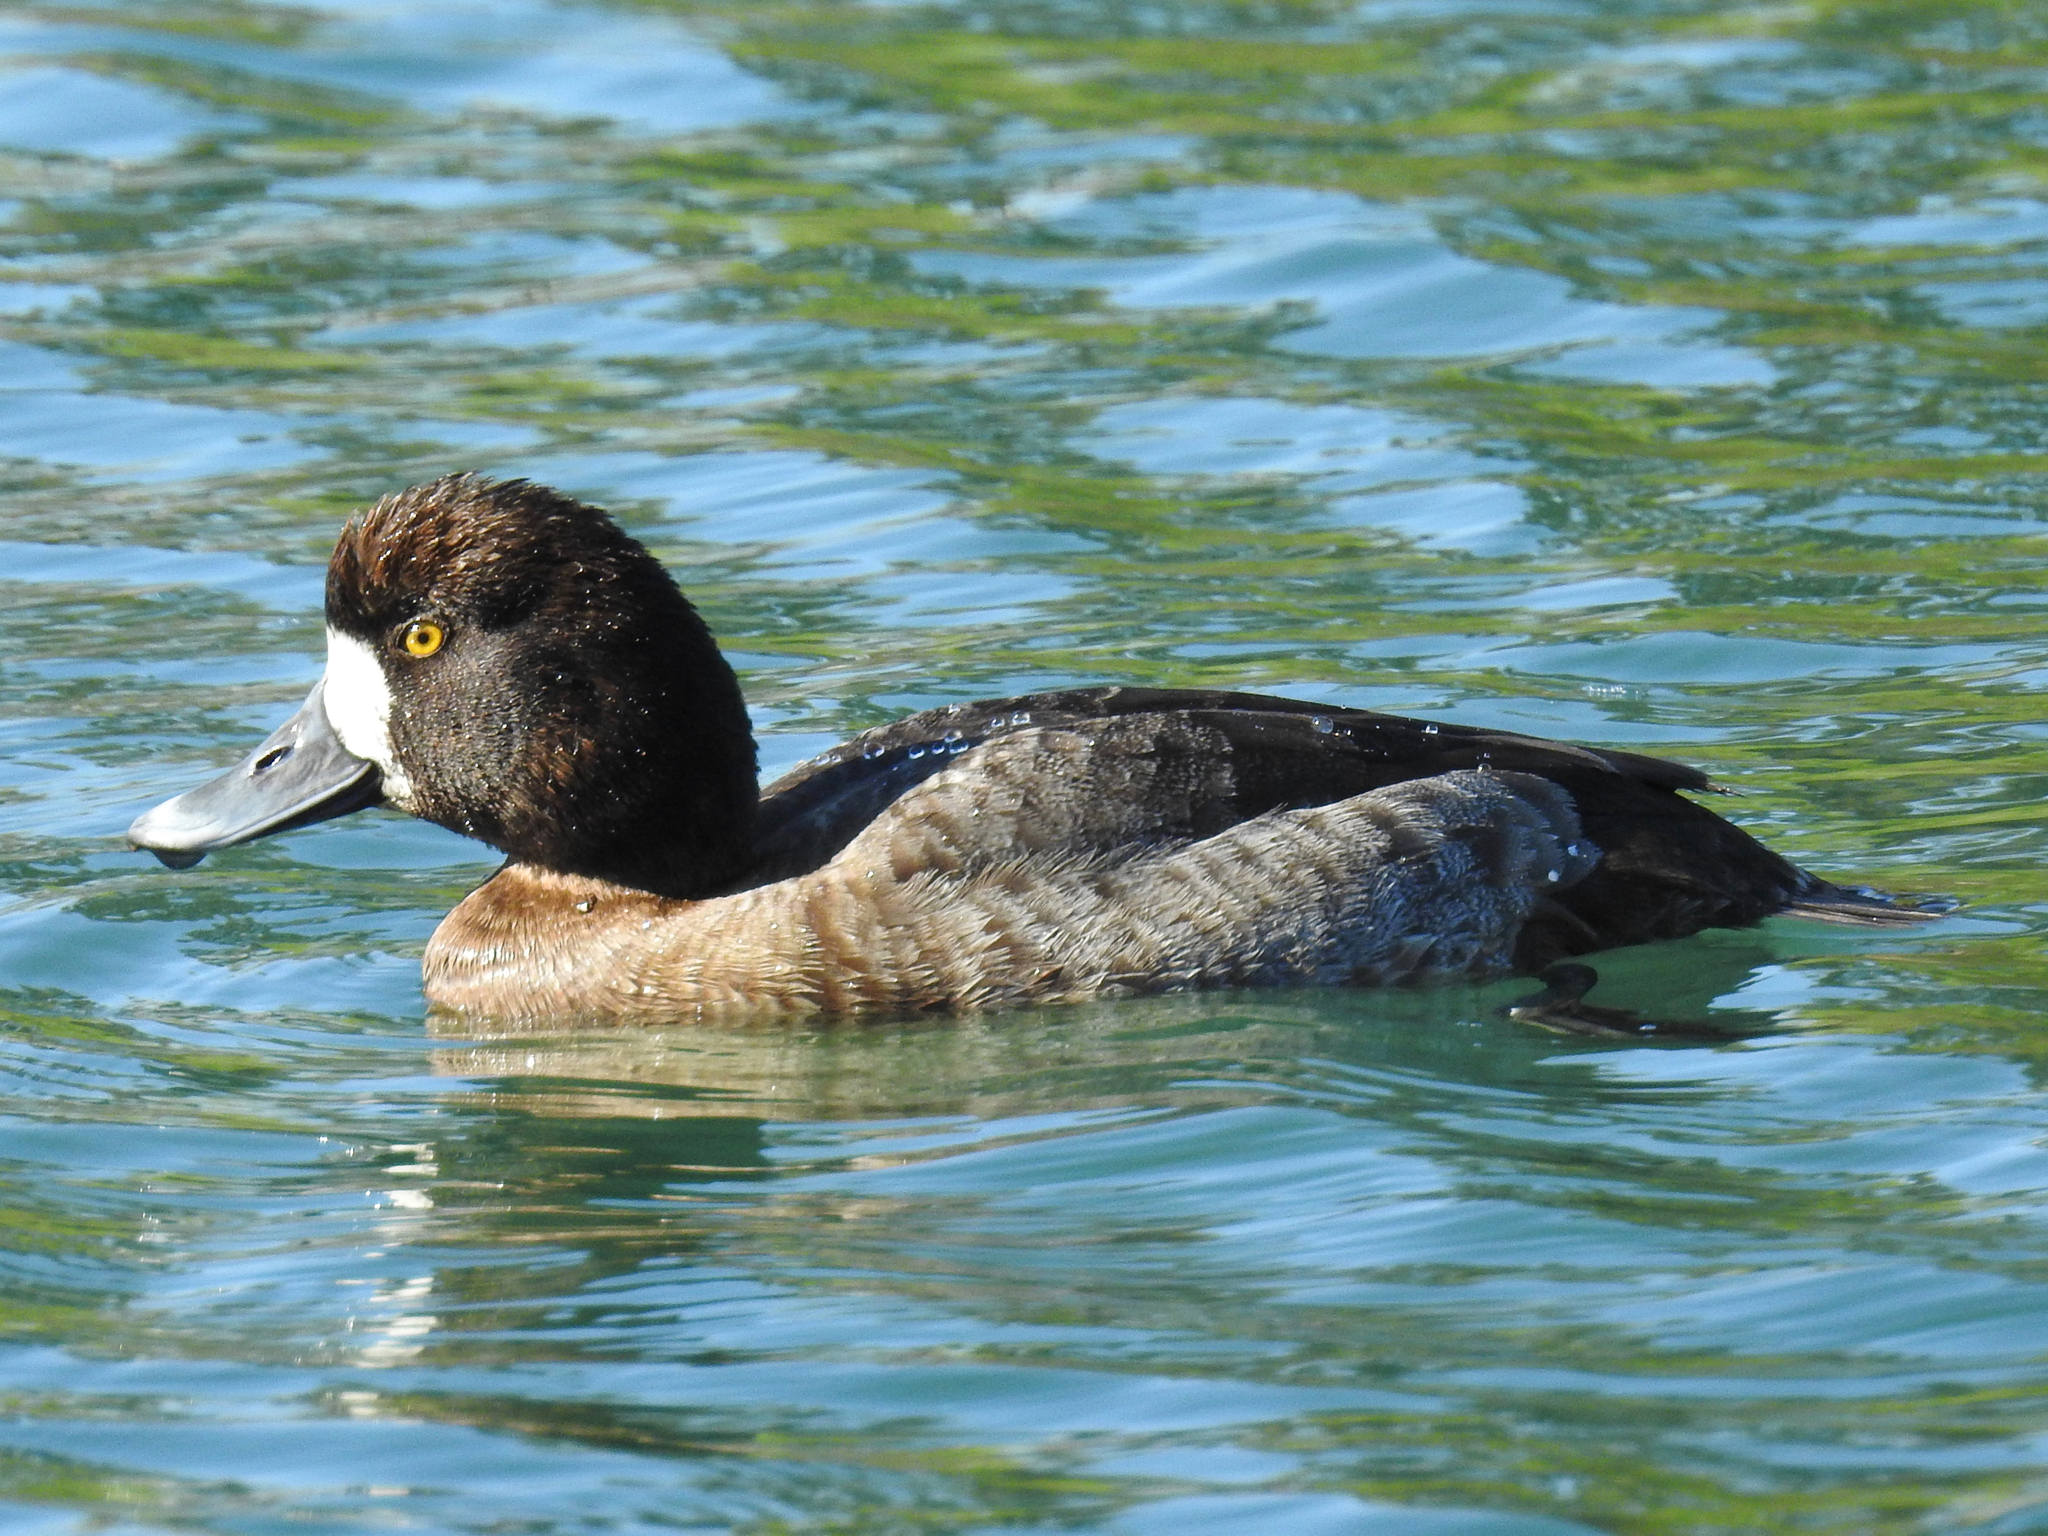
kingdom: Animalia
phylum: Chordata
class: Aves
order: Anseriformes
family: Anatidae
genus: Aythya
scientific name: Aythya affinis
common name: Lesser scaup
